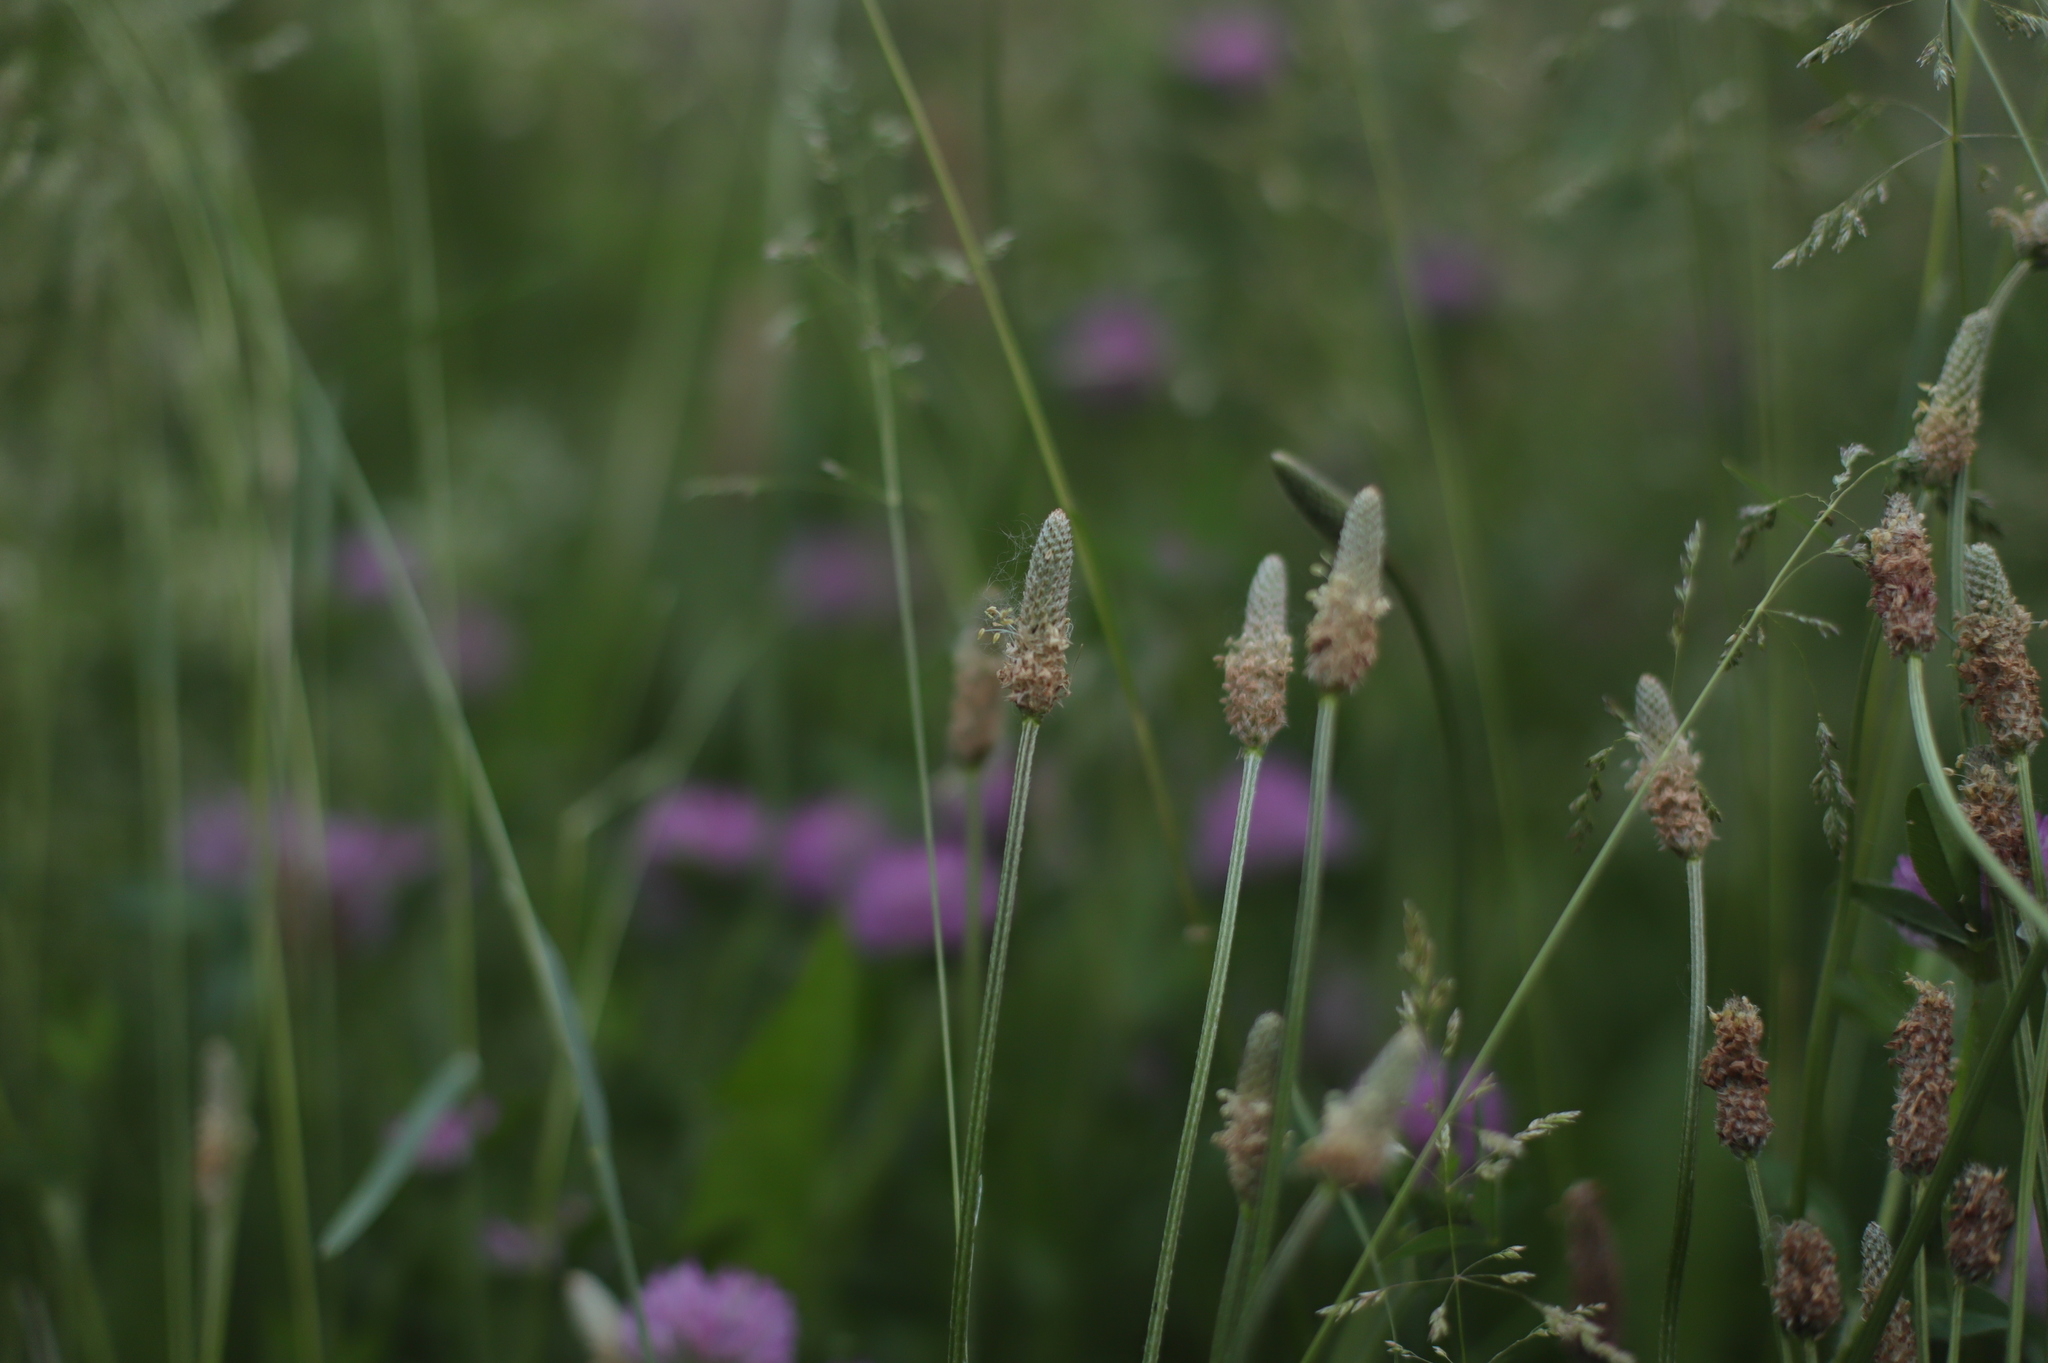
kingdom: Plantae
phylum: Tracheophyta
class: Magnoliopsida
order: Lamiales
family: Plantaginaceae
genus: Plantago
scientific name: Plantago lanceolata
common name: Ribwort plantain
